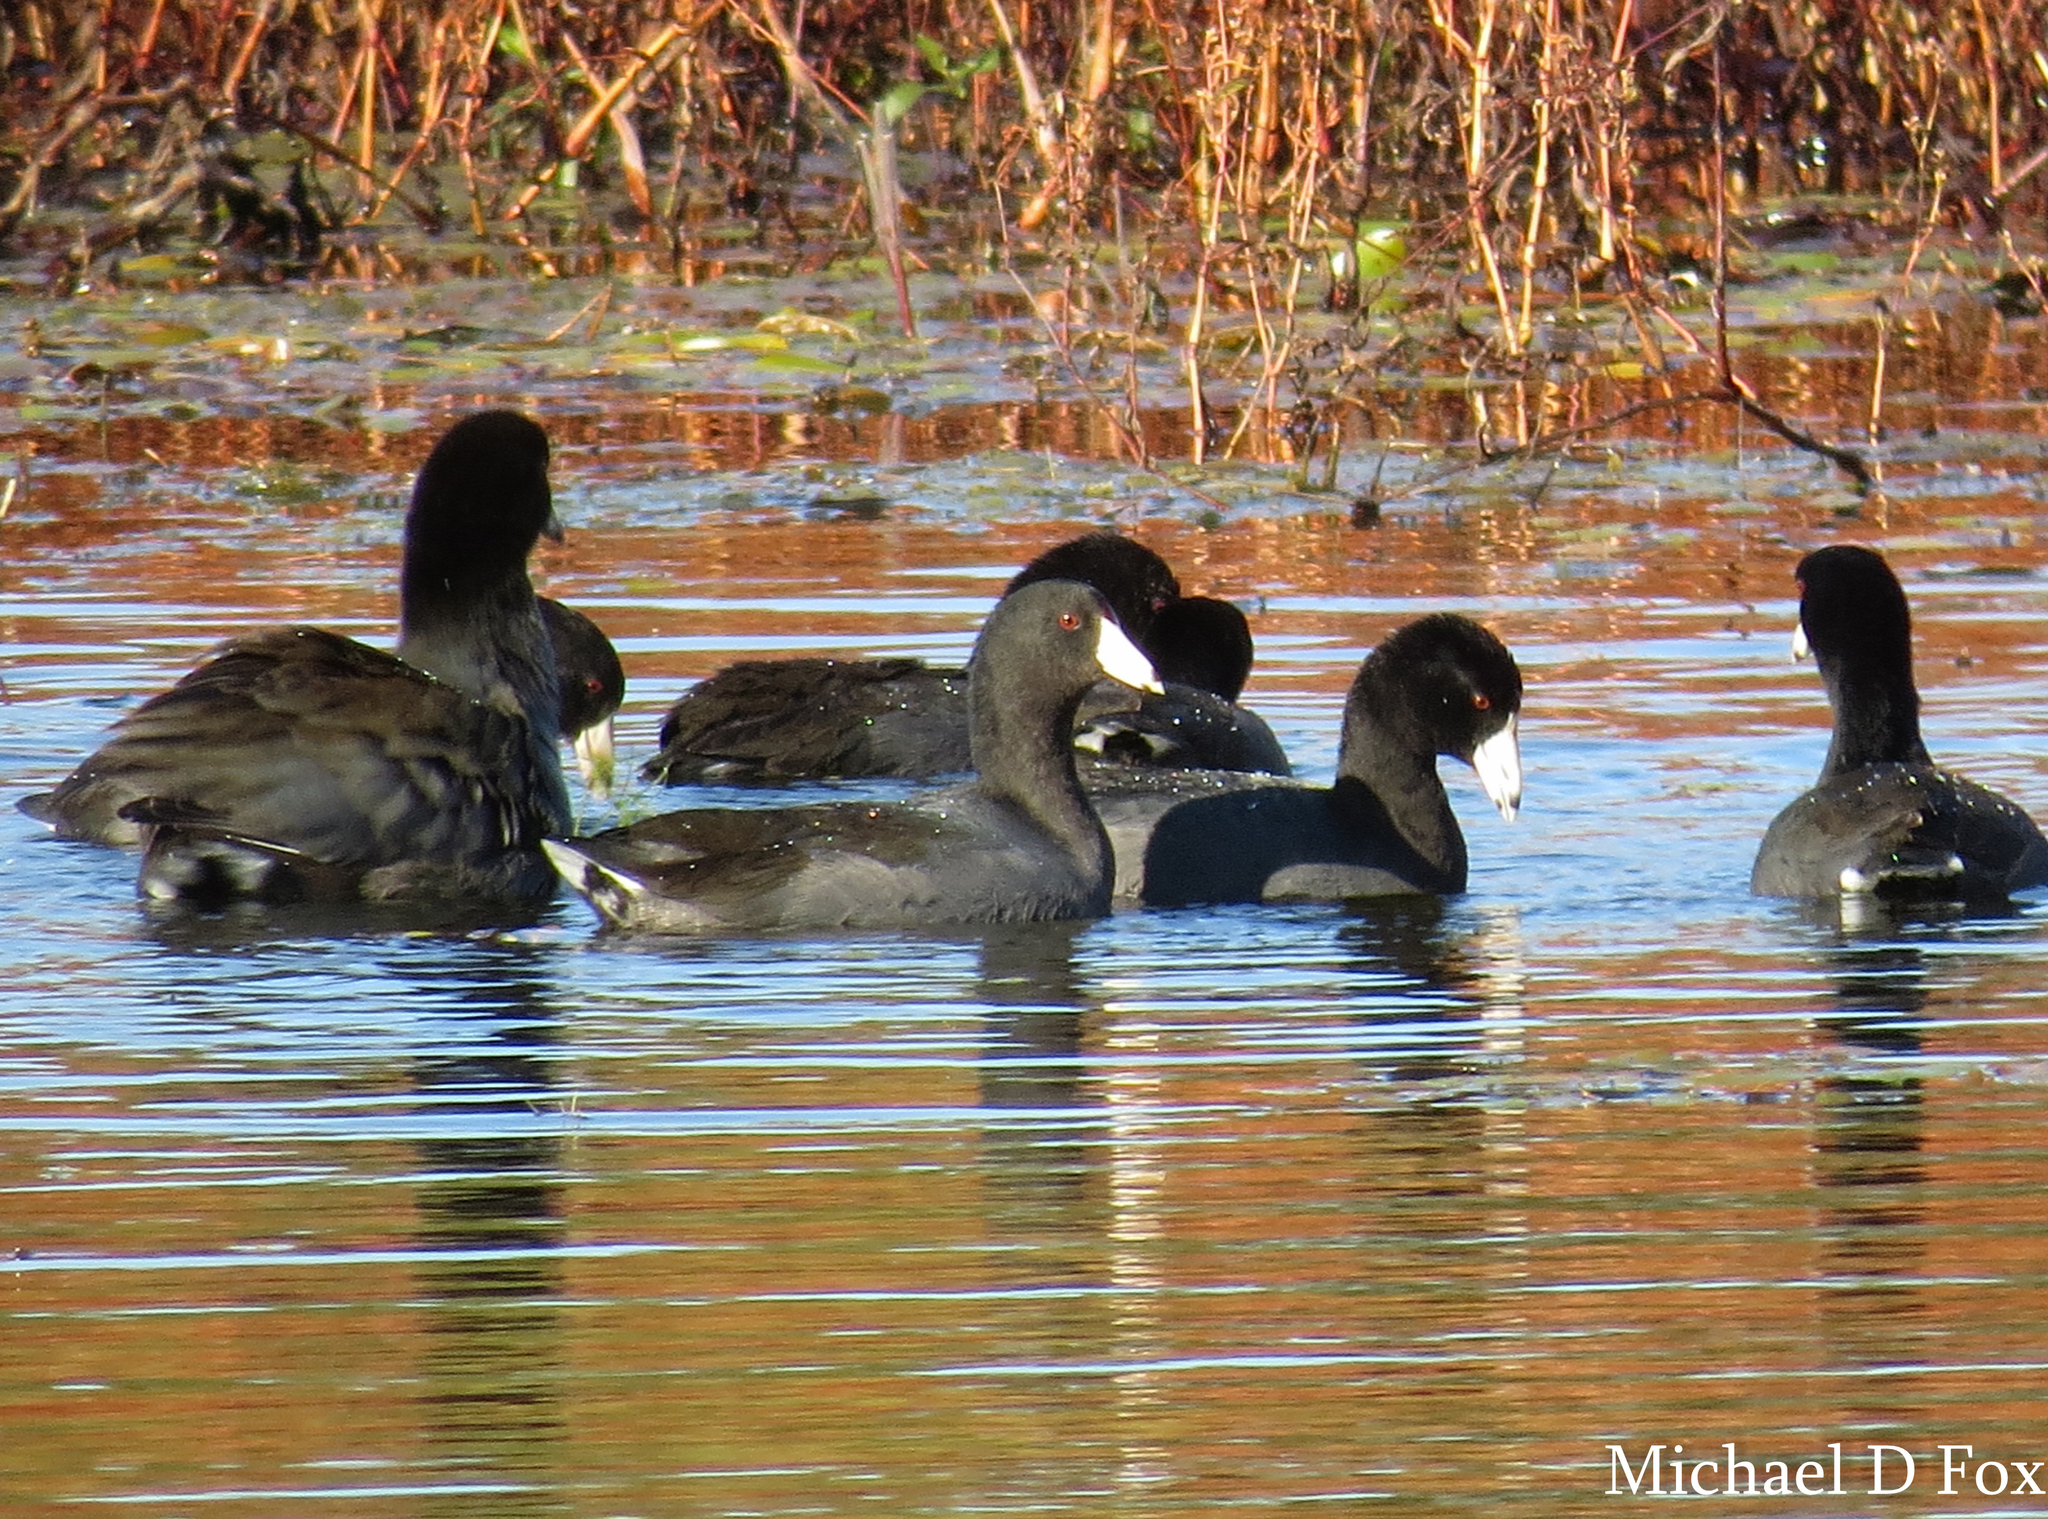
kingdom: Animalia
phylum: Chordata
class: Aves
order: Gruiformes
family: Rallidae
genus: Fulica
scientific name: Fulica americana
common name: American coot
